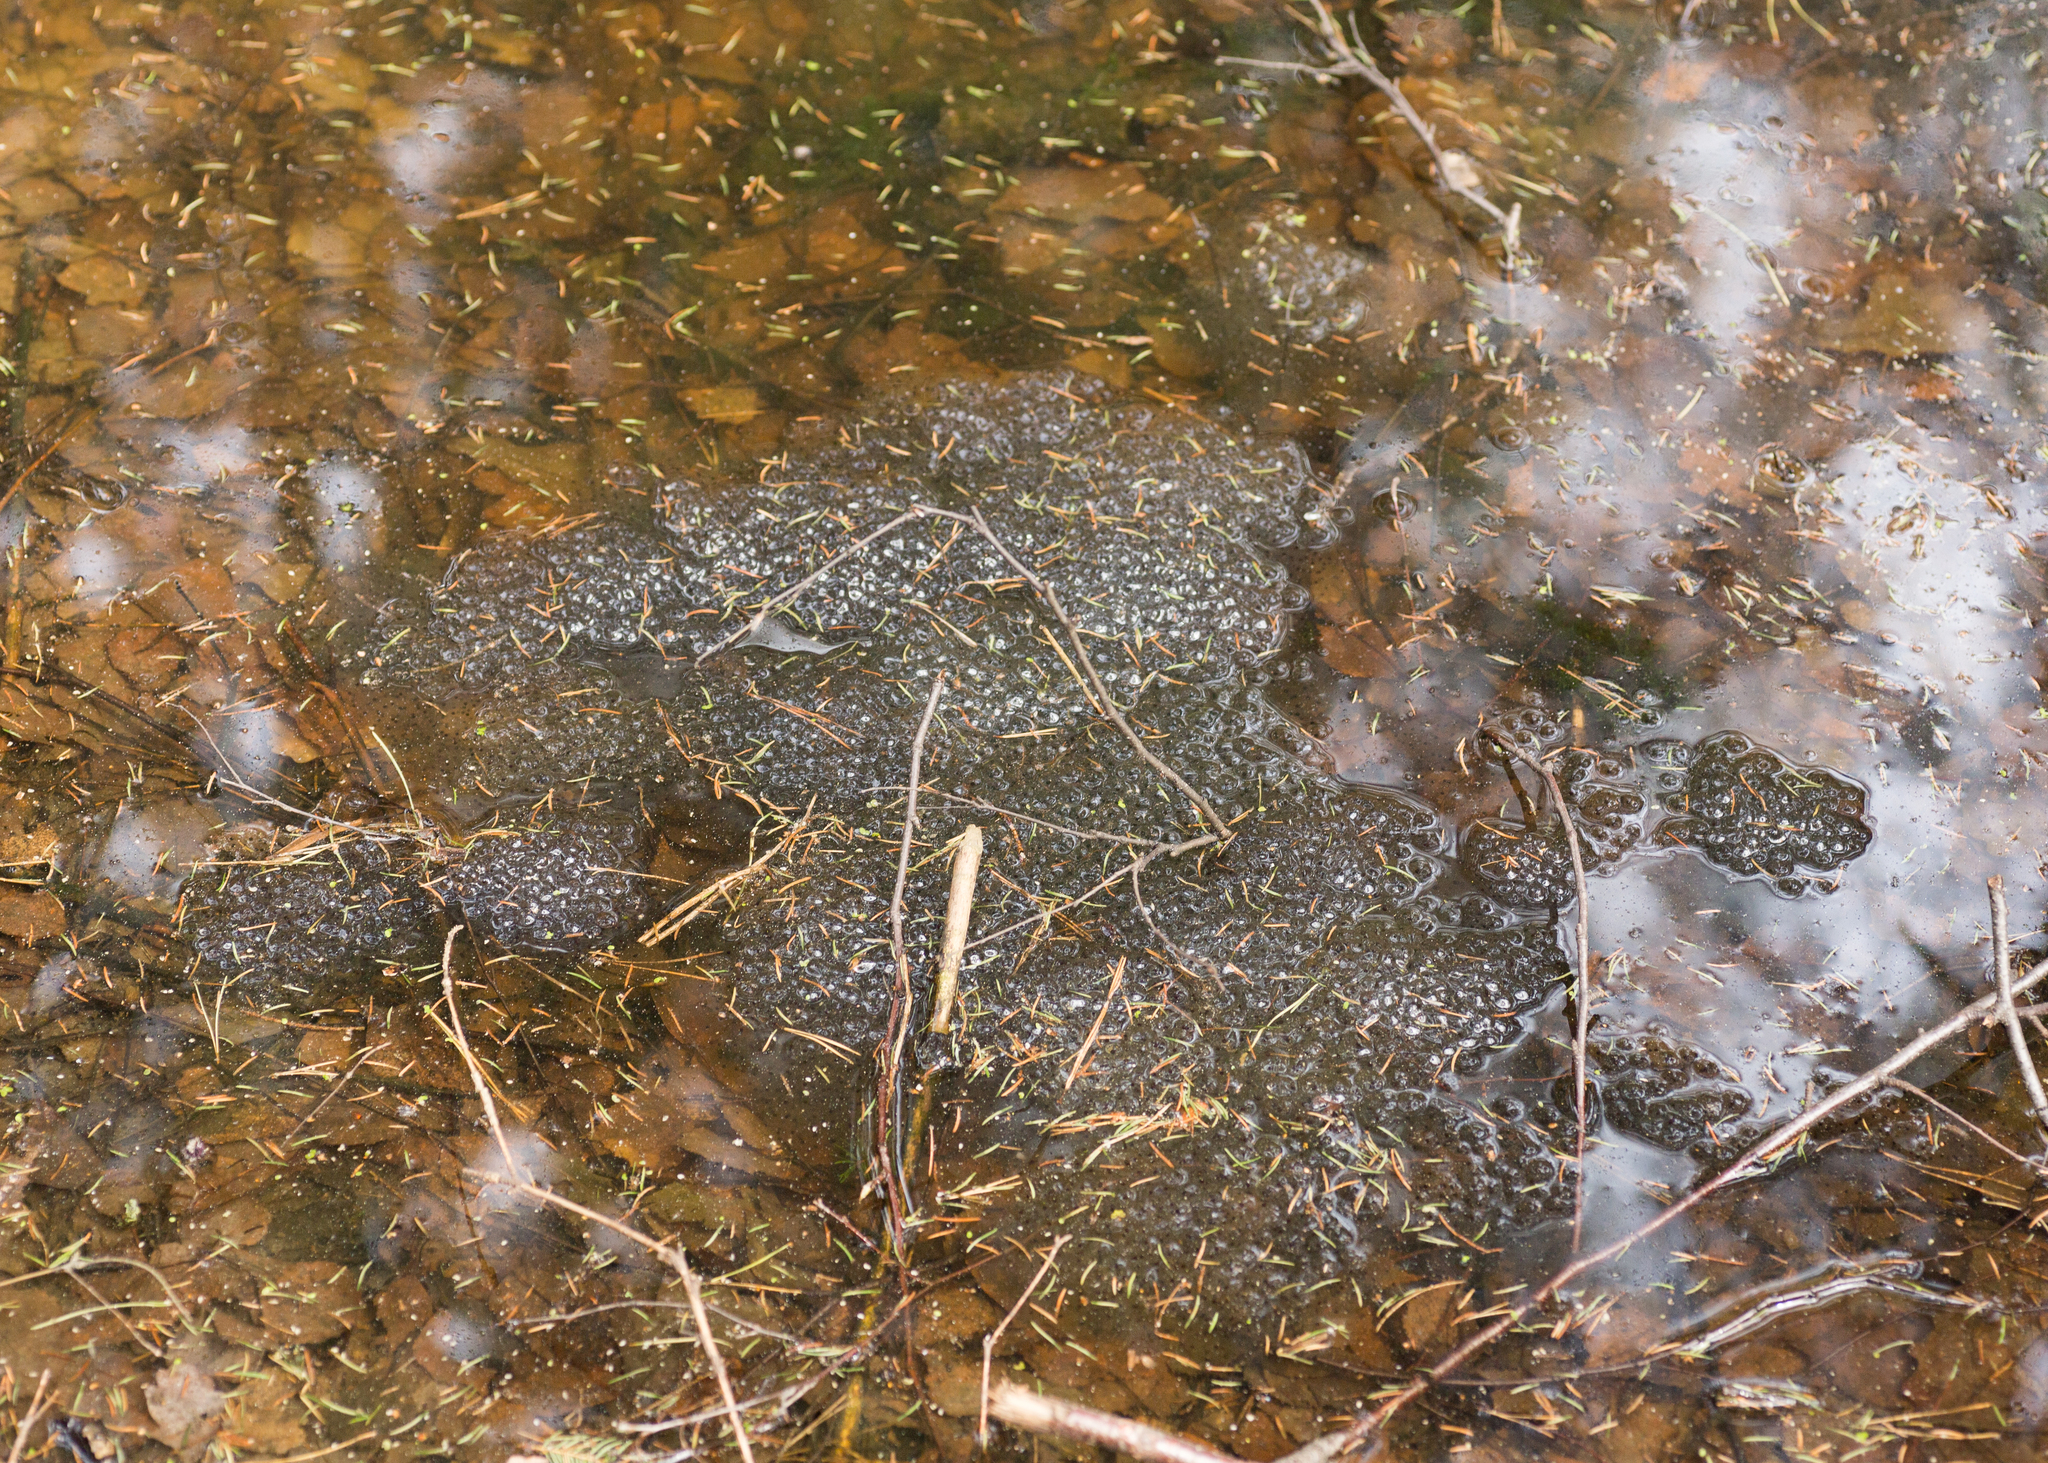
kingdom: Animalia
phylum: Chordata
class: Amphibia
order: Anura
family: Ranidae
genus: Rana
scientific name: Rana temporaria
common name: Common frog
